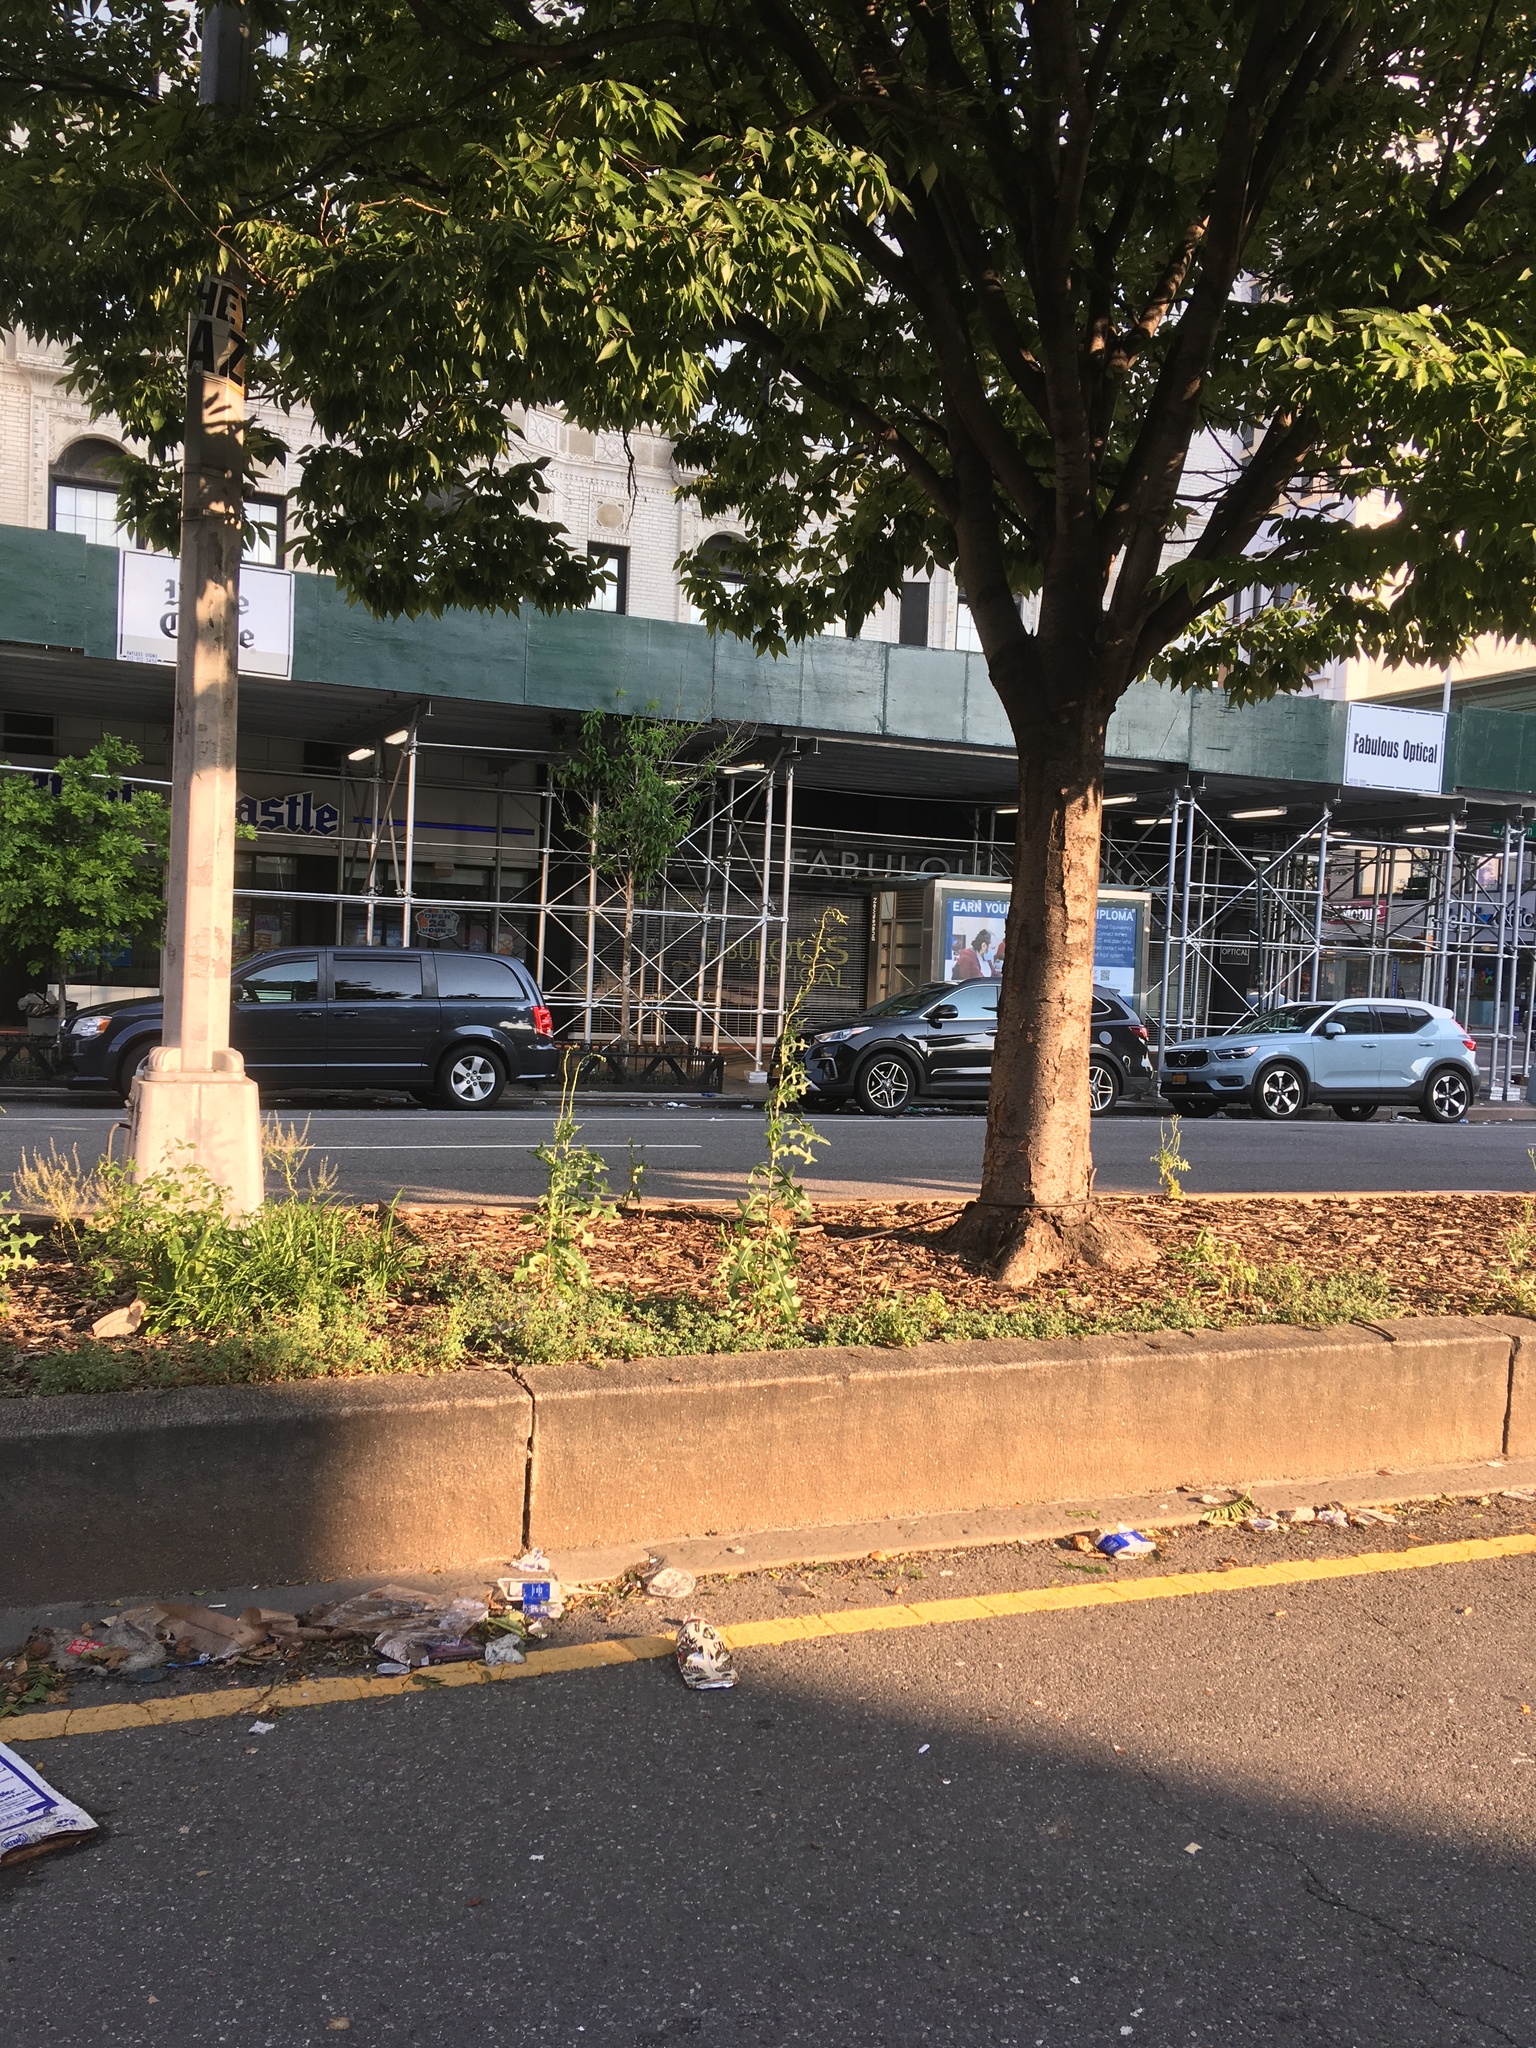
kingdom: Plantae
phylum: Tracheophyta
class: Magnoliopsida
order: Asterales
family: Asteraceae
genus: Lactuca
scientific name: Lactuca serriola
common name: Prickly lettuce
